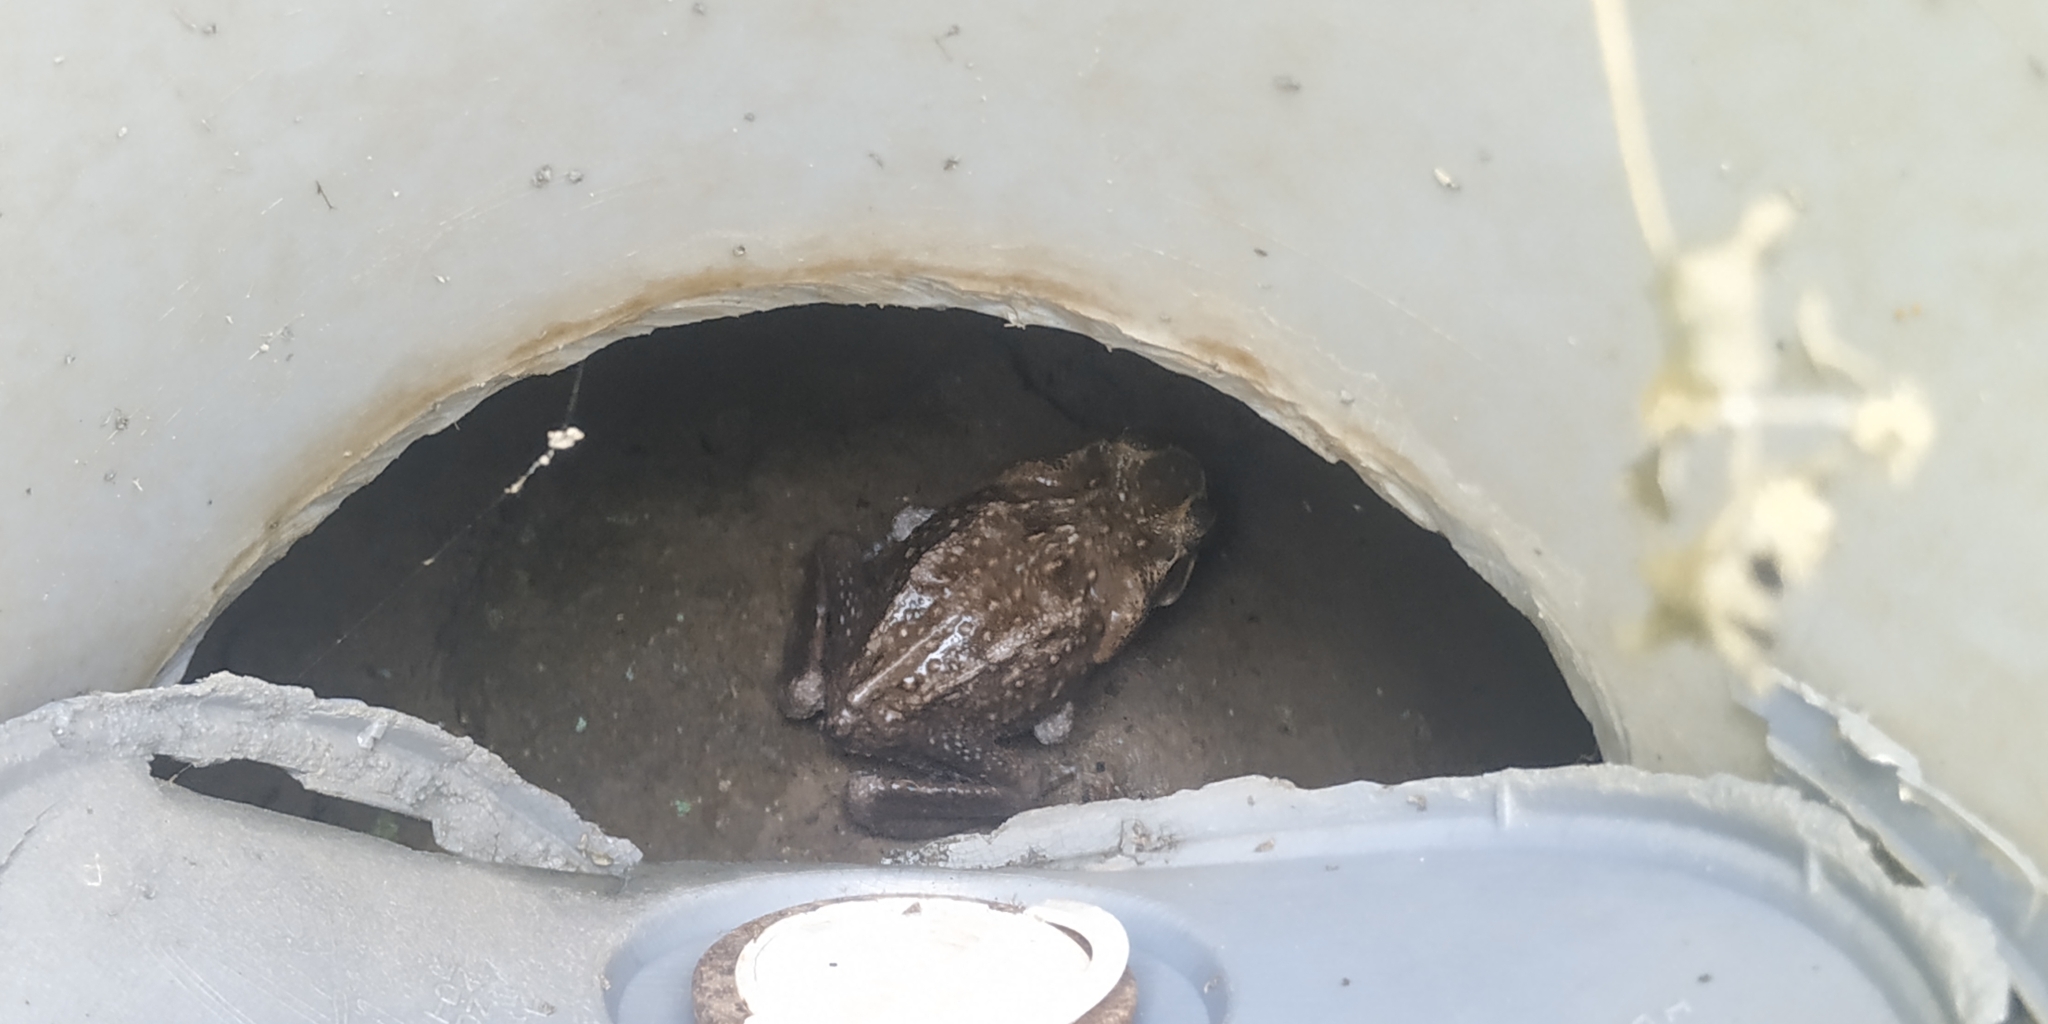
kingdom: Animalia
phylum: Chordata
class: Amphibia
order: Anura
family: Bufonidae
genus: Rhinella
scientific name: Rhinella horribilis
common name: Mesoamerican cane toad
